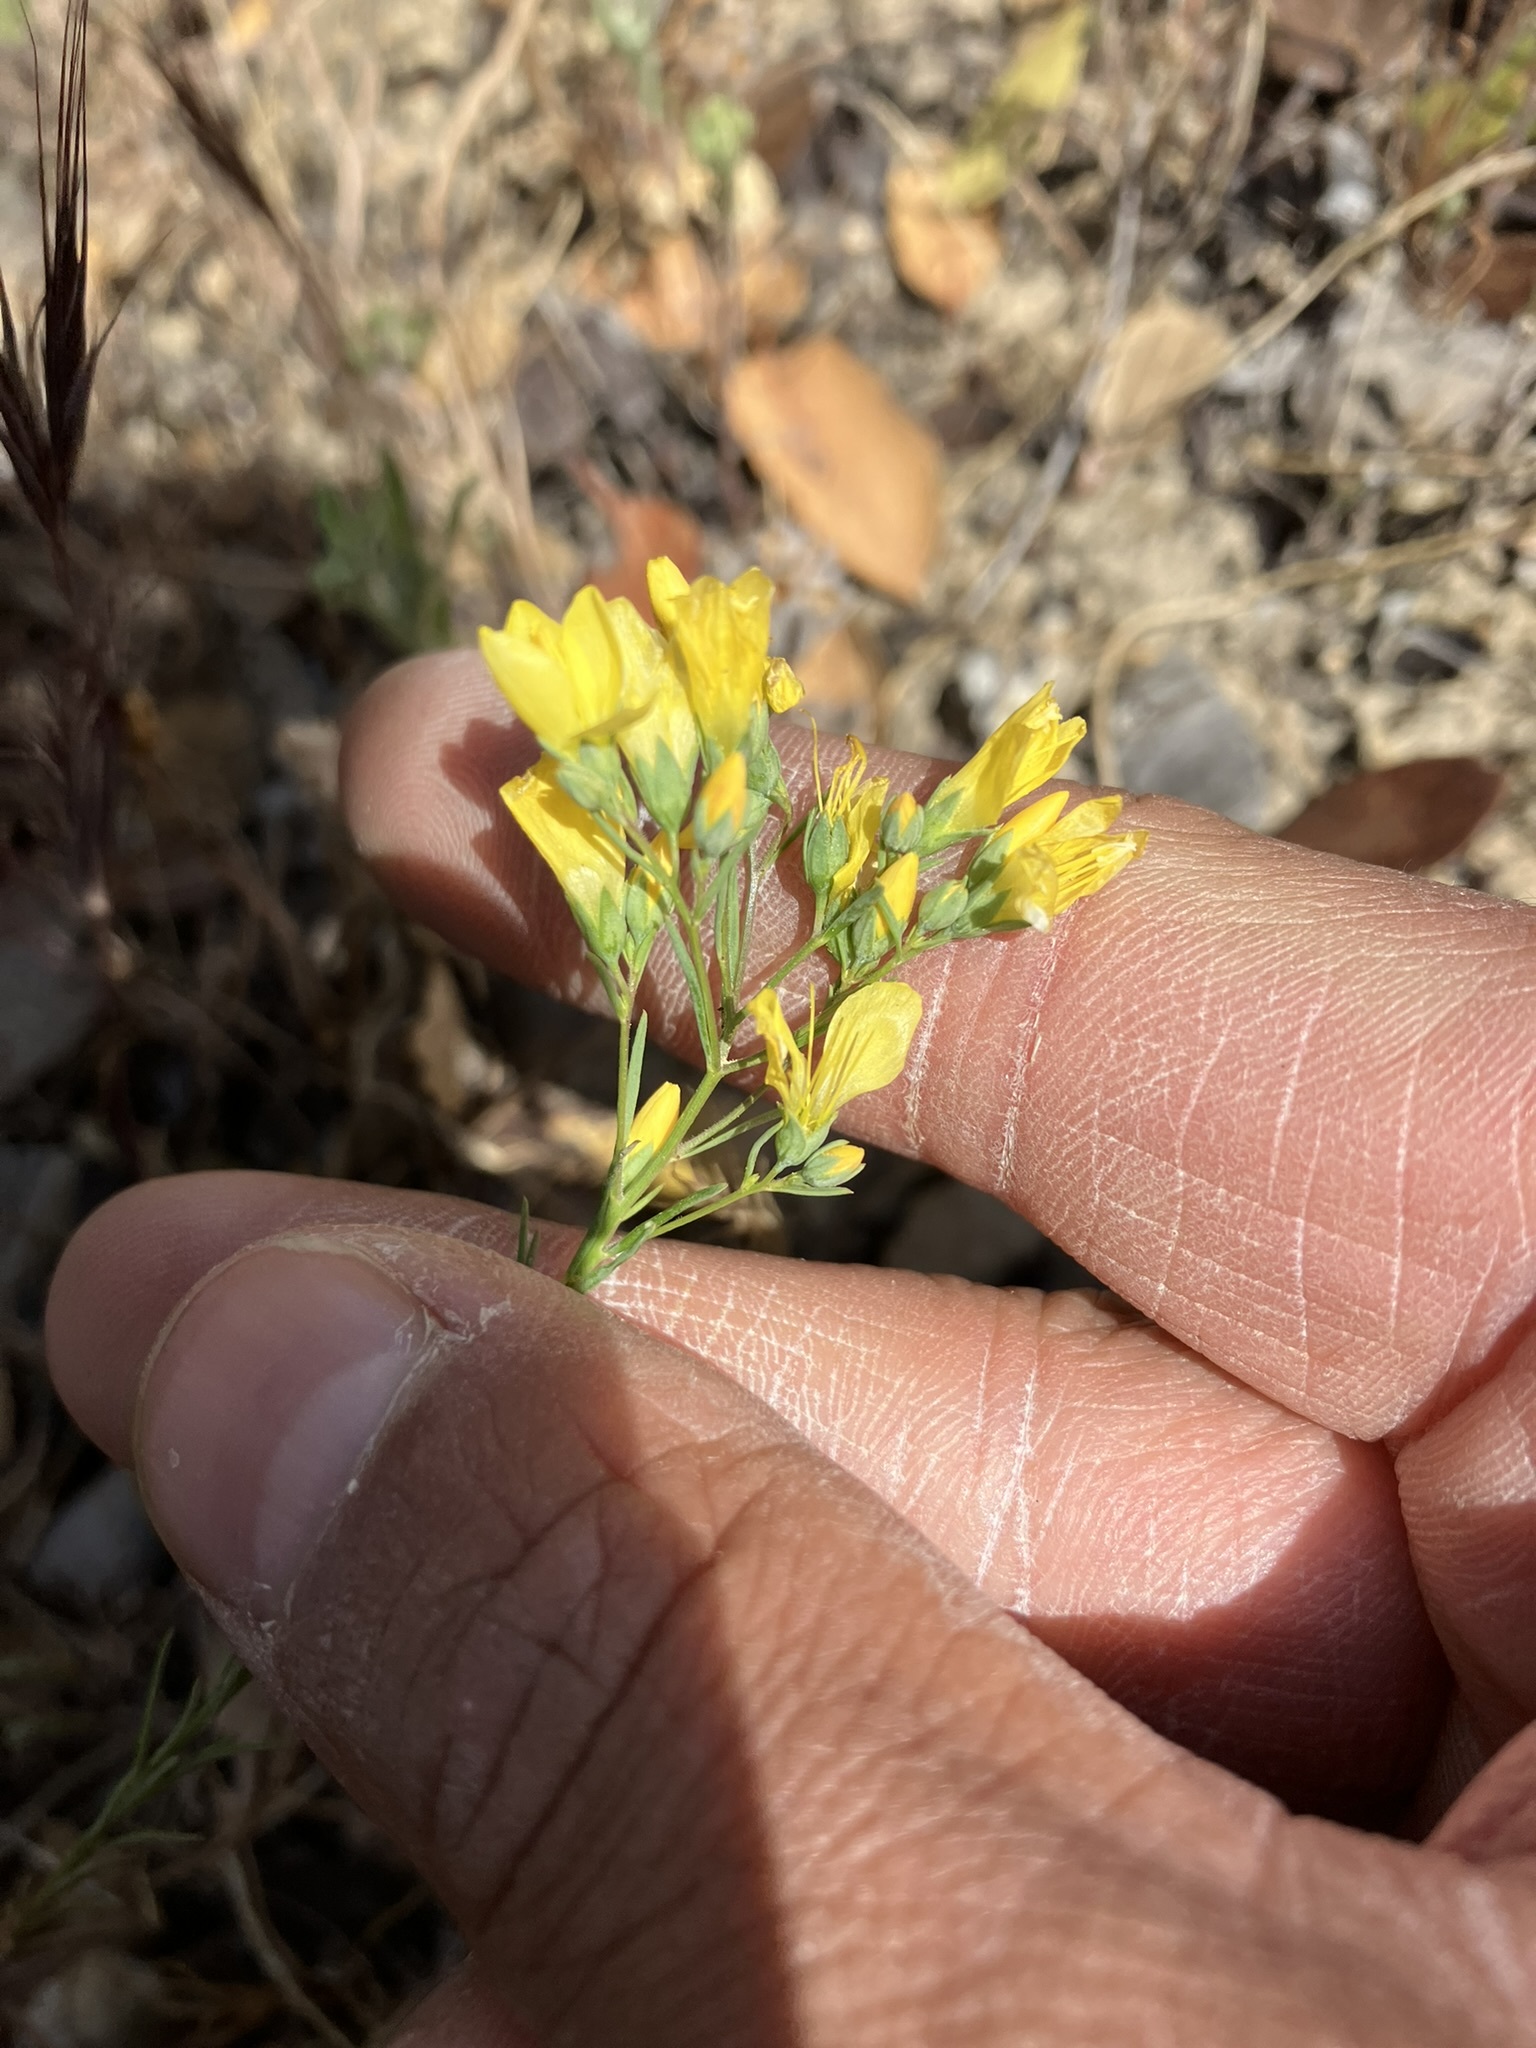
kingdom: Plantae
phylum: Tracheophyta
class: Magnoliopsida
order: Malpighiales
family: Linaceae
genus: Hesperolinon
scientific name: Hesperolinon breweri
